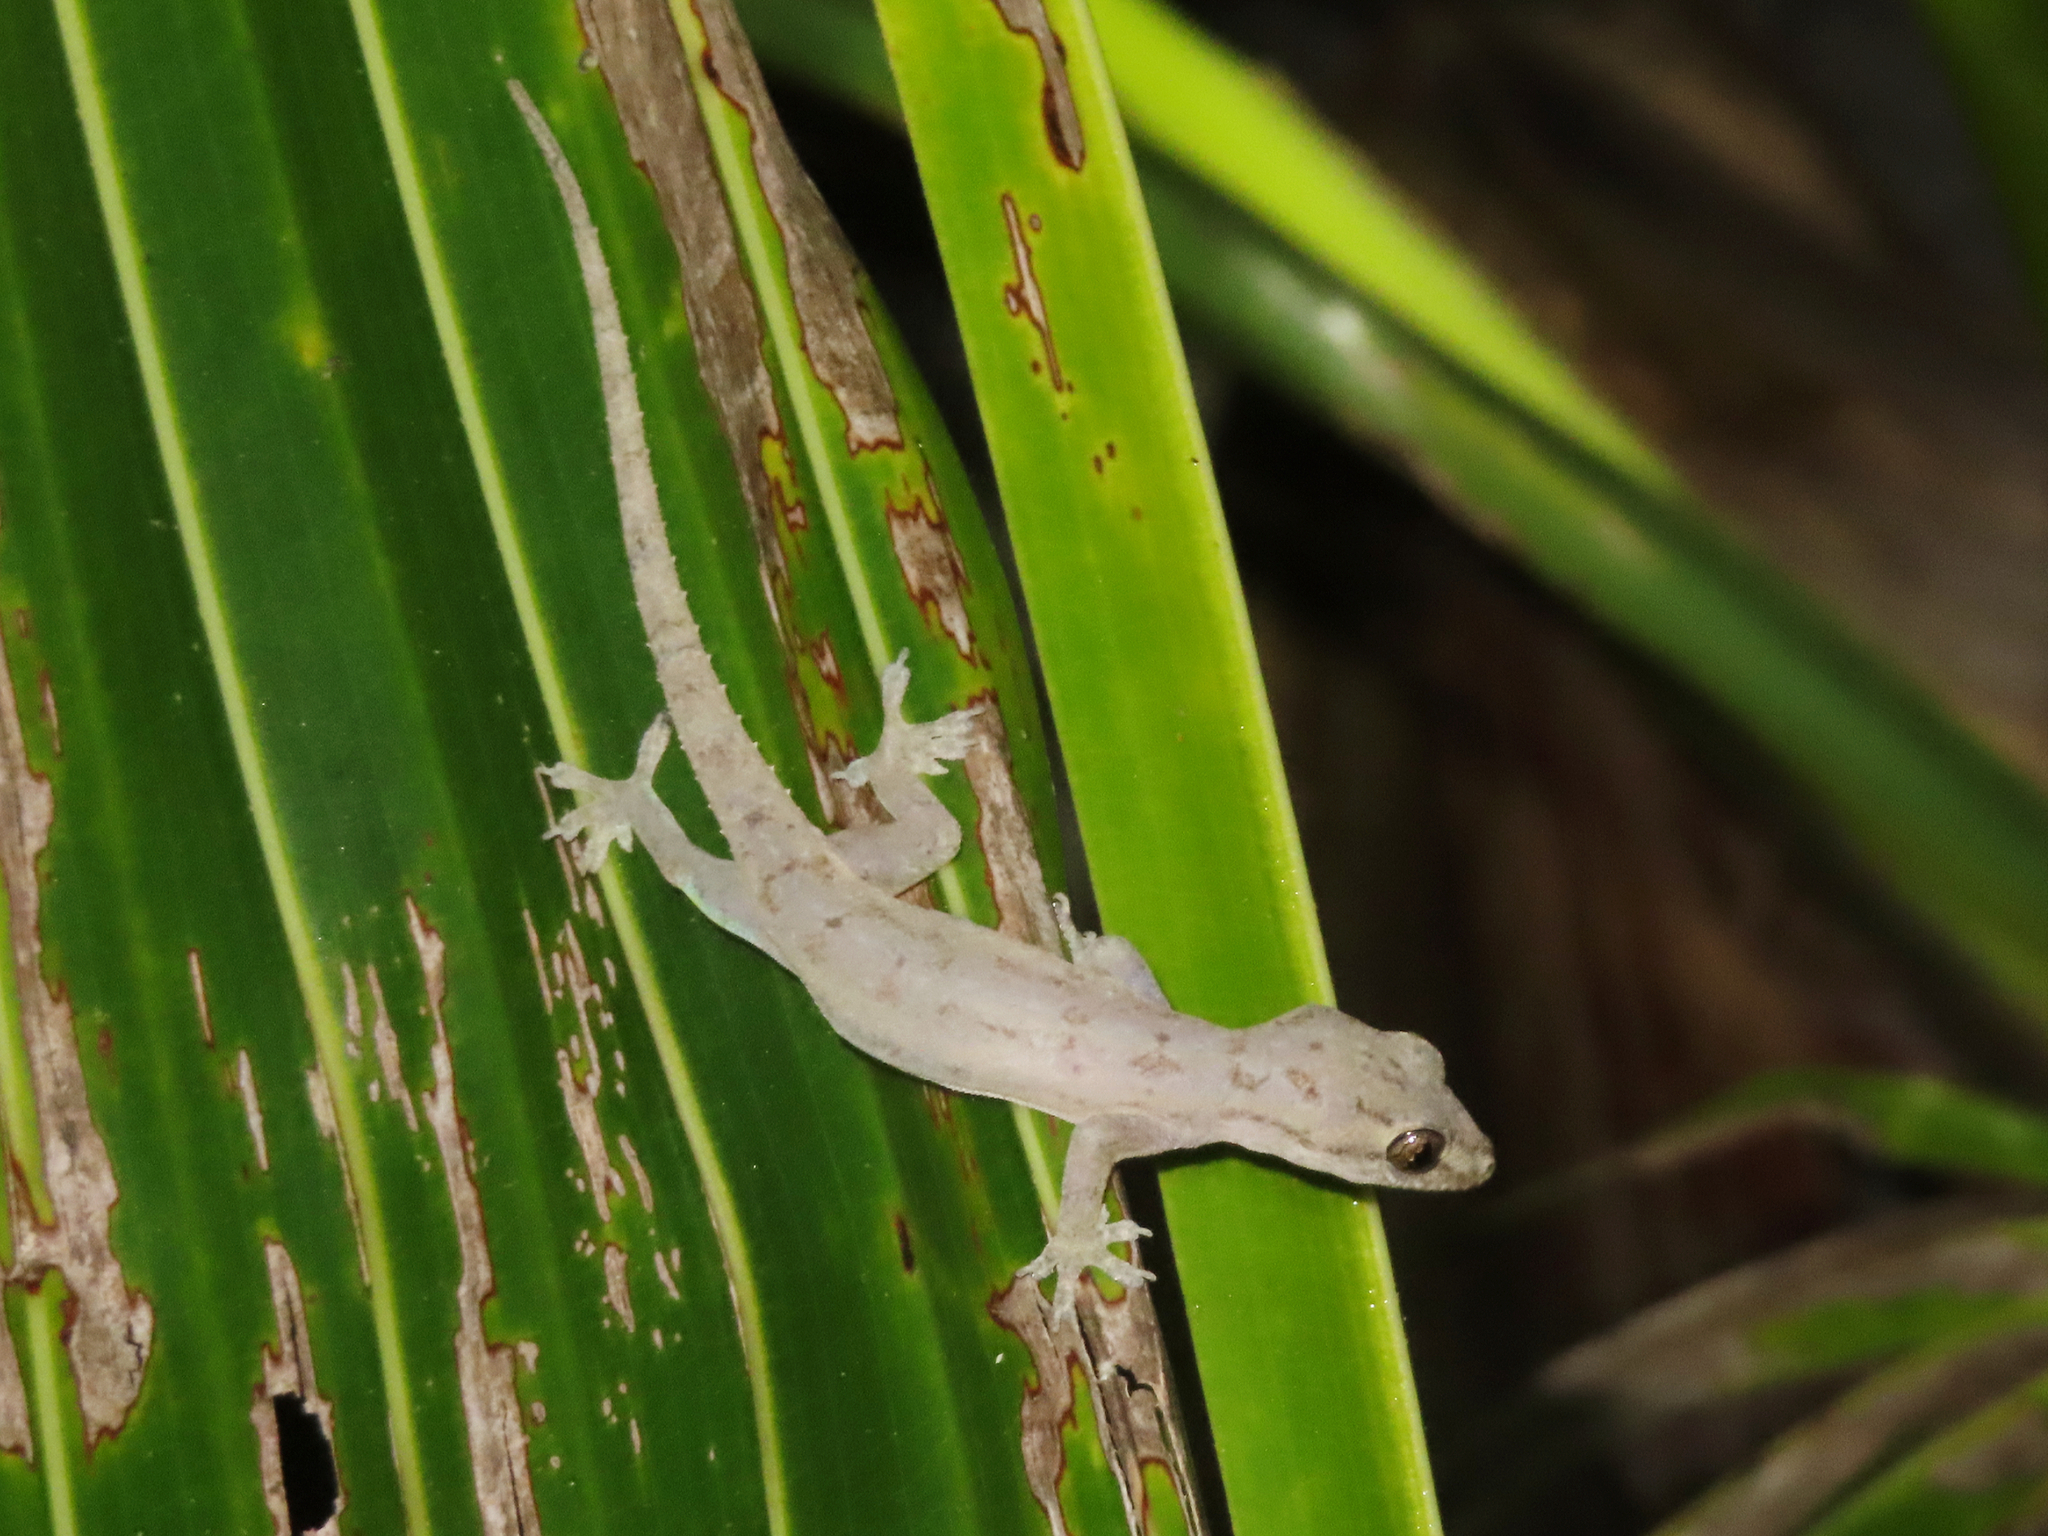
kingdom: Animalia
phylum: Chordata
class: Squamata
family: Gekkonidae
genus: Hemidactylus
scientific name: Hemidactylus frenatus
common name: Common house gecko
